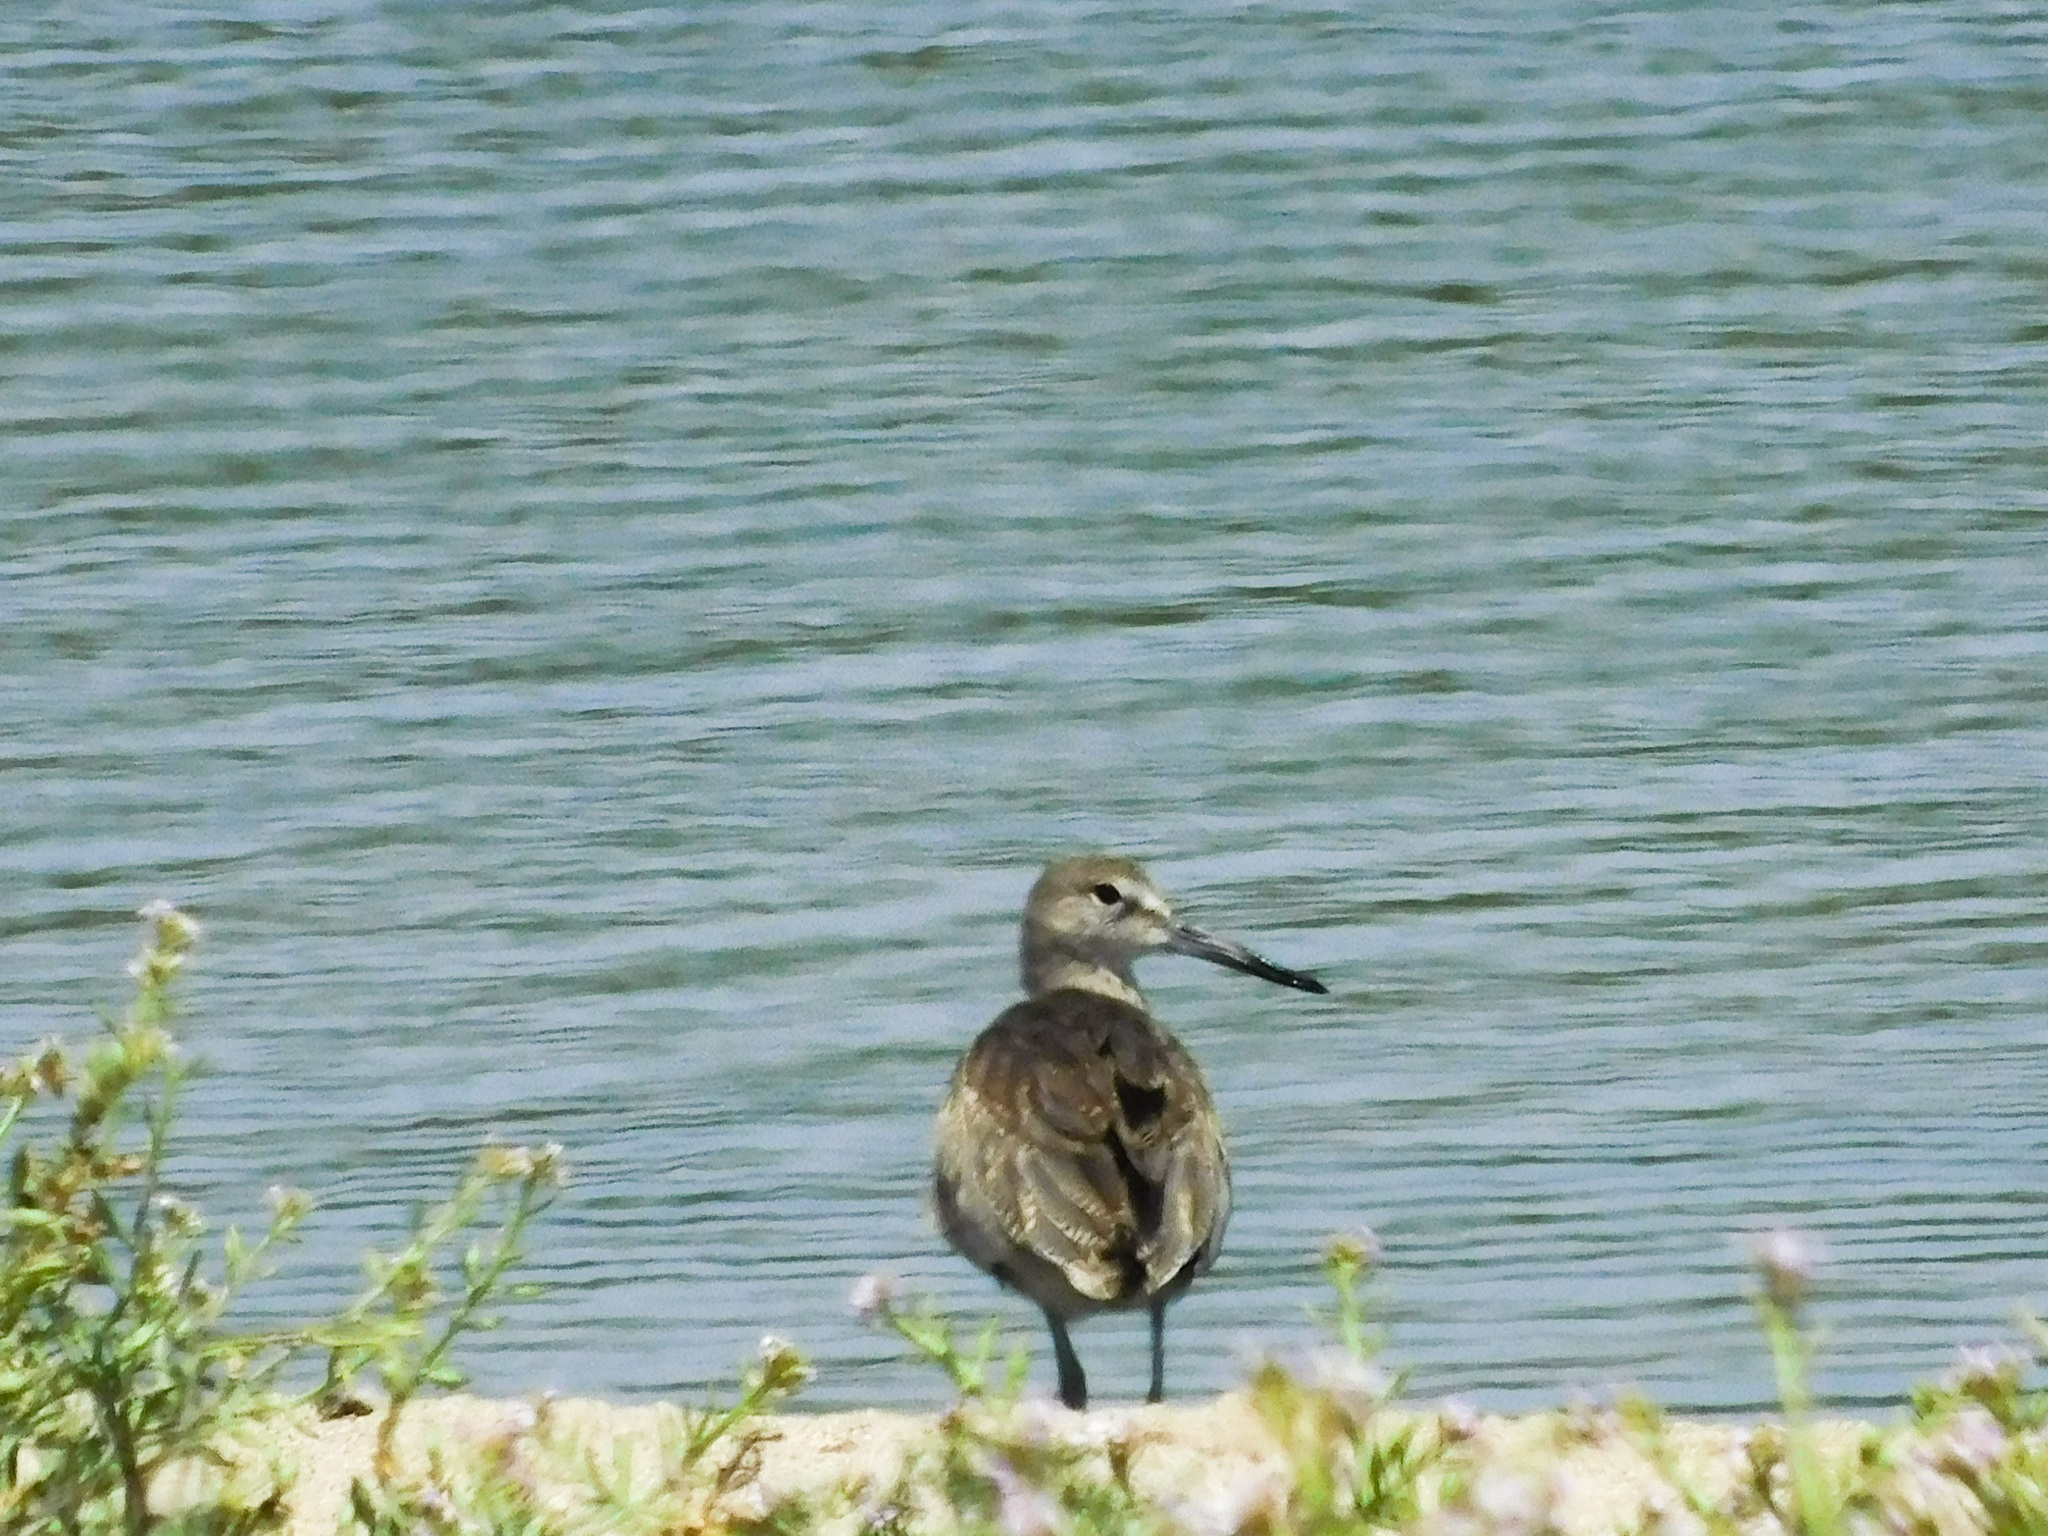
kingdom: Animalia
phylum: Chordata
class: Aves
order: Charadriiformes
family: Scolopacidae
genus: Tringa
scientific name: Tringa semipalmata
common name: Willet
